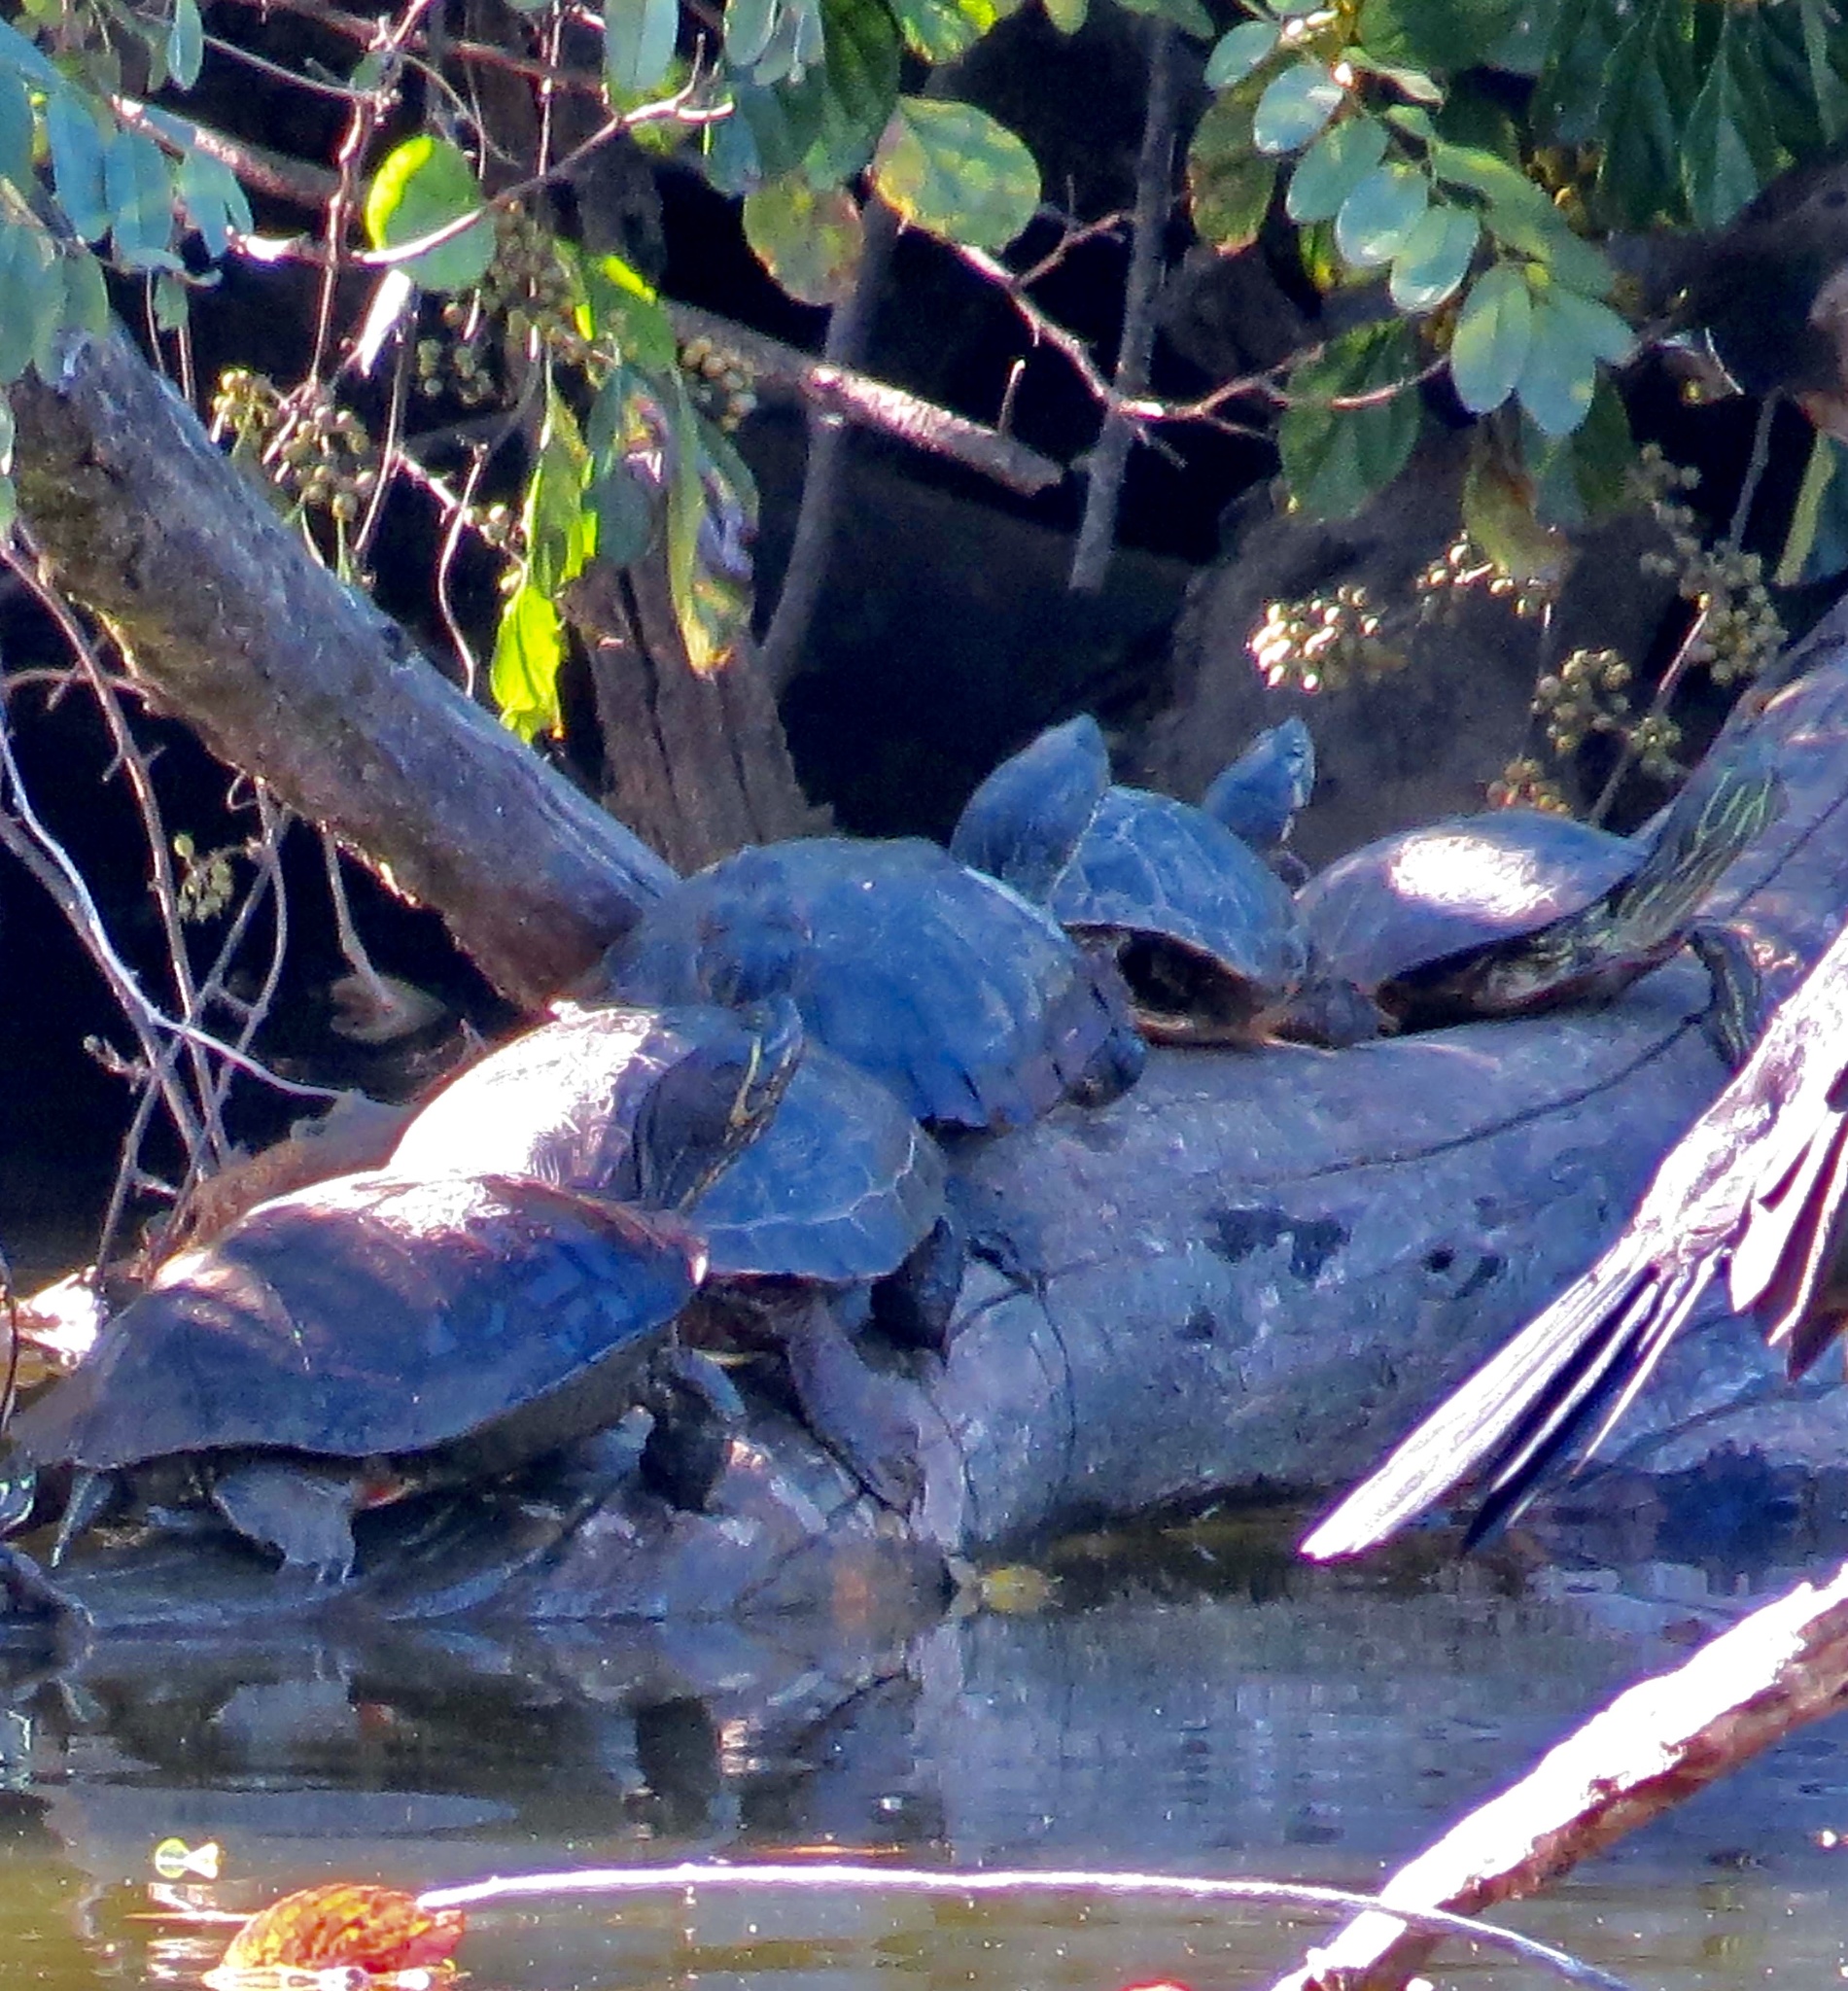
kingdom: Animalia
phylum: Chordata
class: Testudines
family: Emydidae
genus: Trachemys
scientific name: Trachemys scripta
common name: Slider
